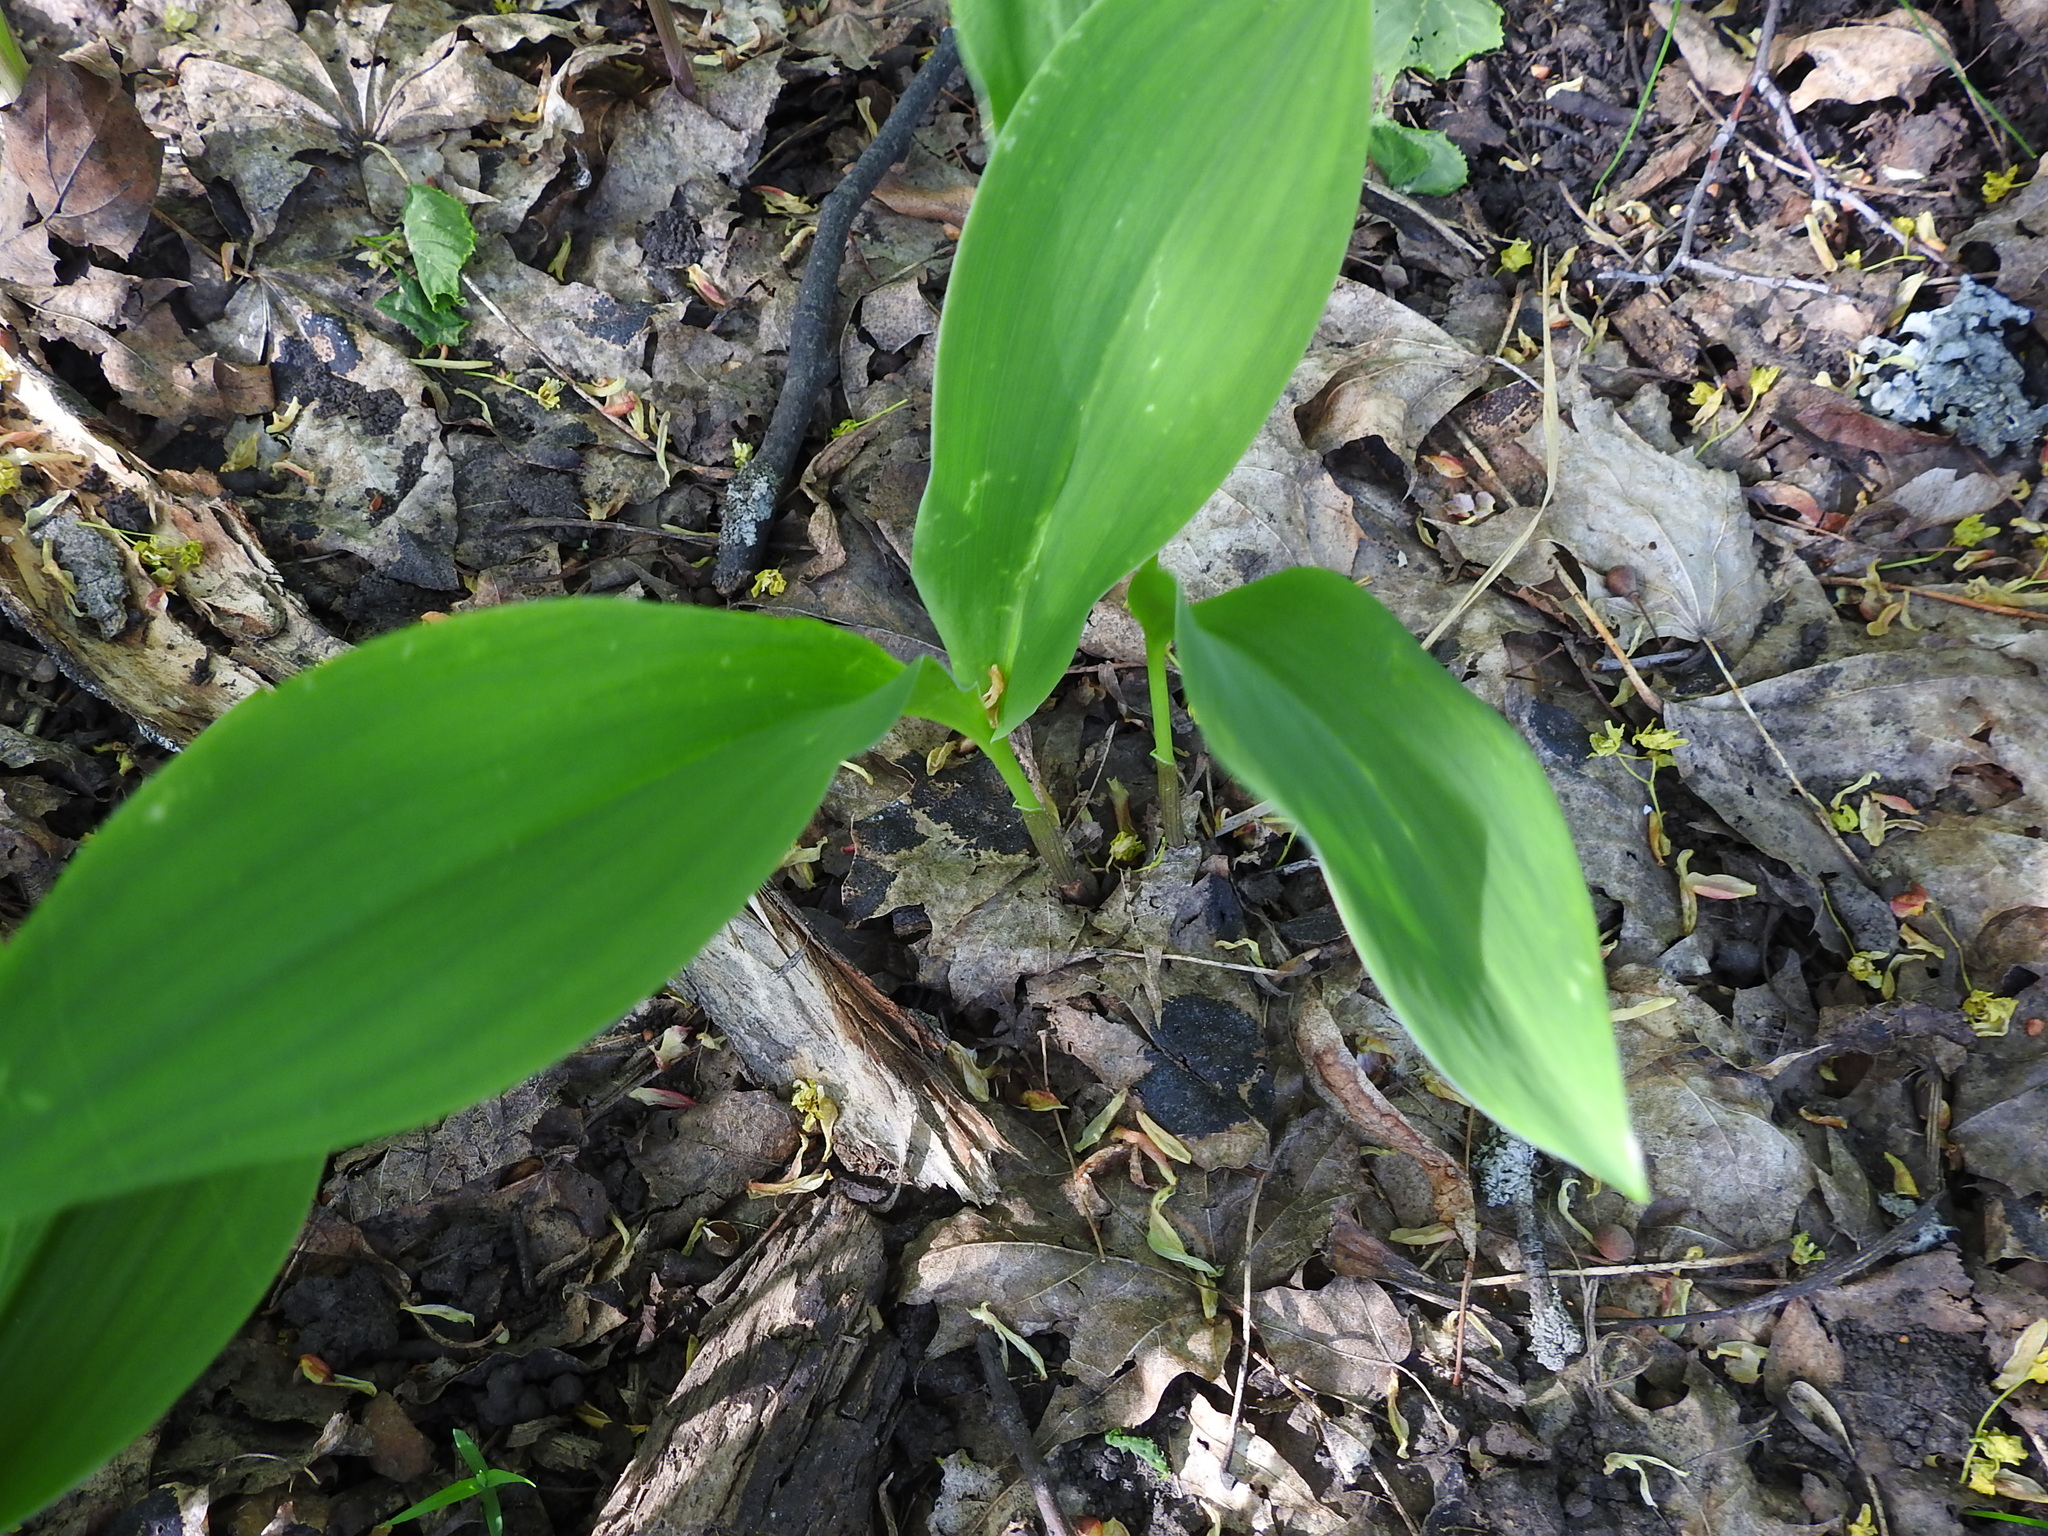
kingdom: Plantae
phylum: Tracheophyta
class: Liliopsida
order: Asparagales
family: Asparagaceae
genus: Convallaria
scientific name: Convallaria majalis
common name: Lily-of-the-valley
